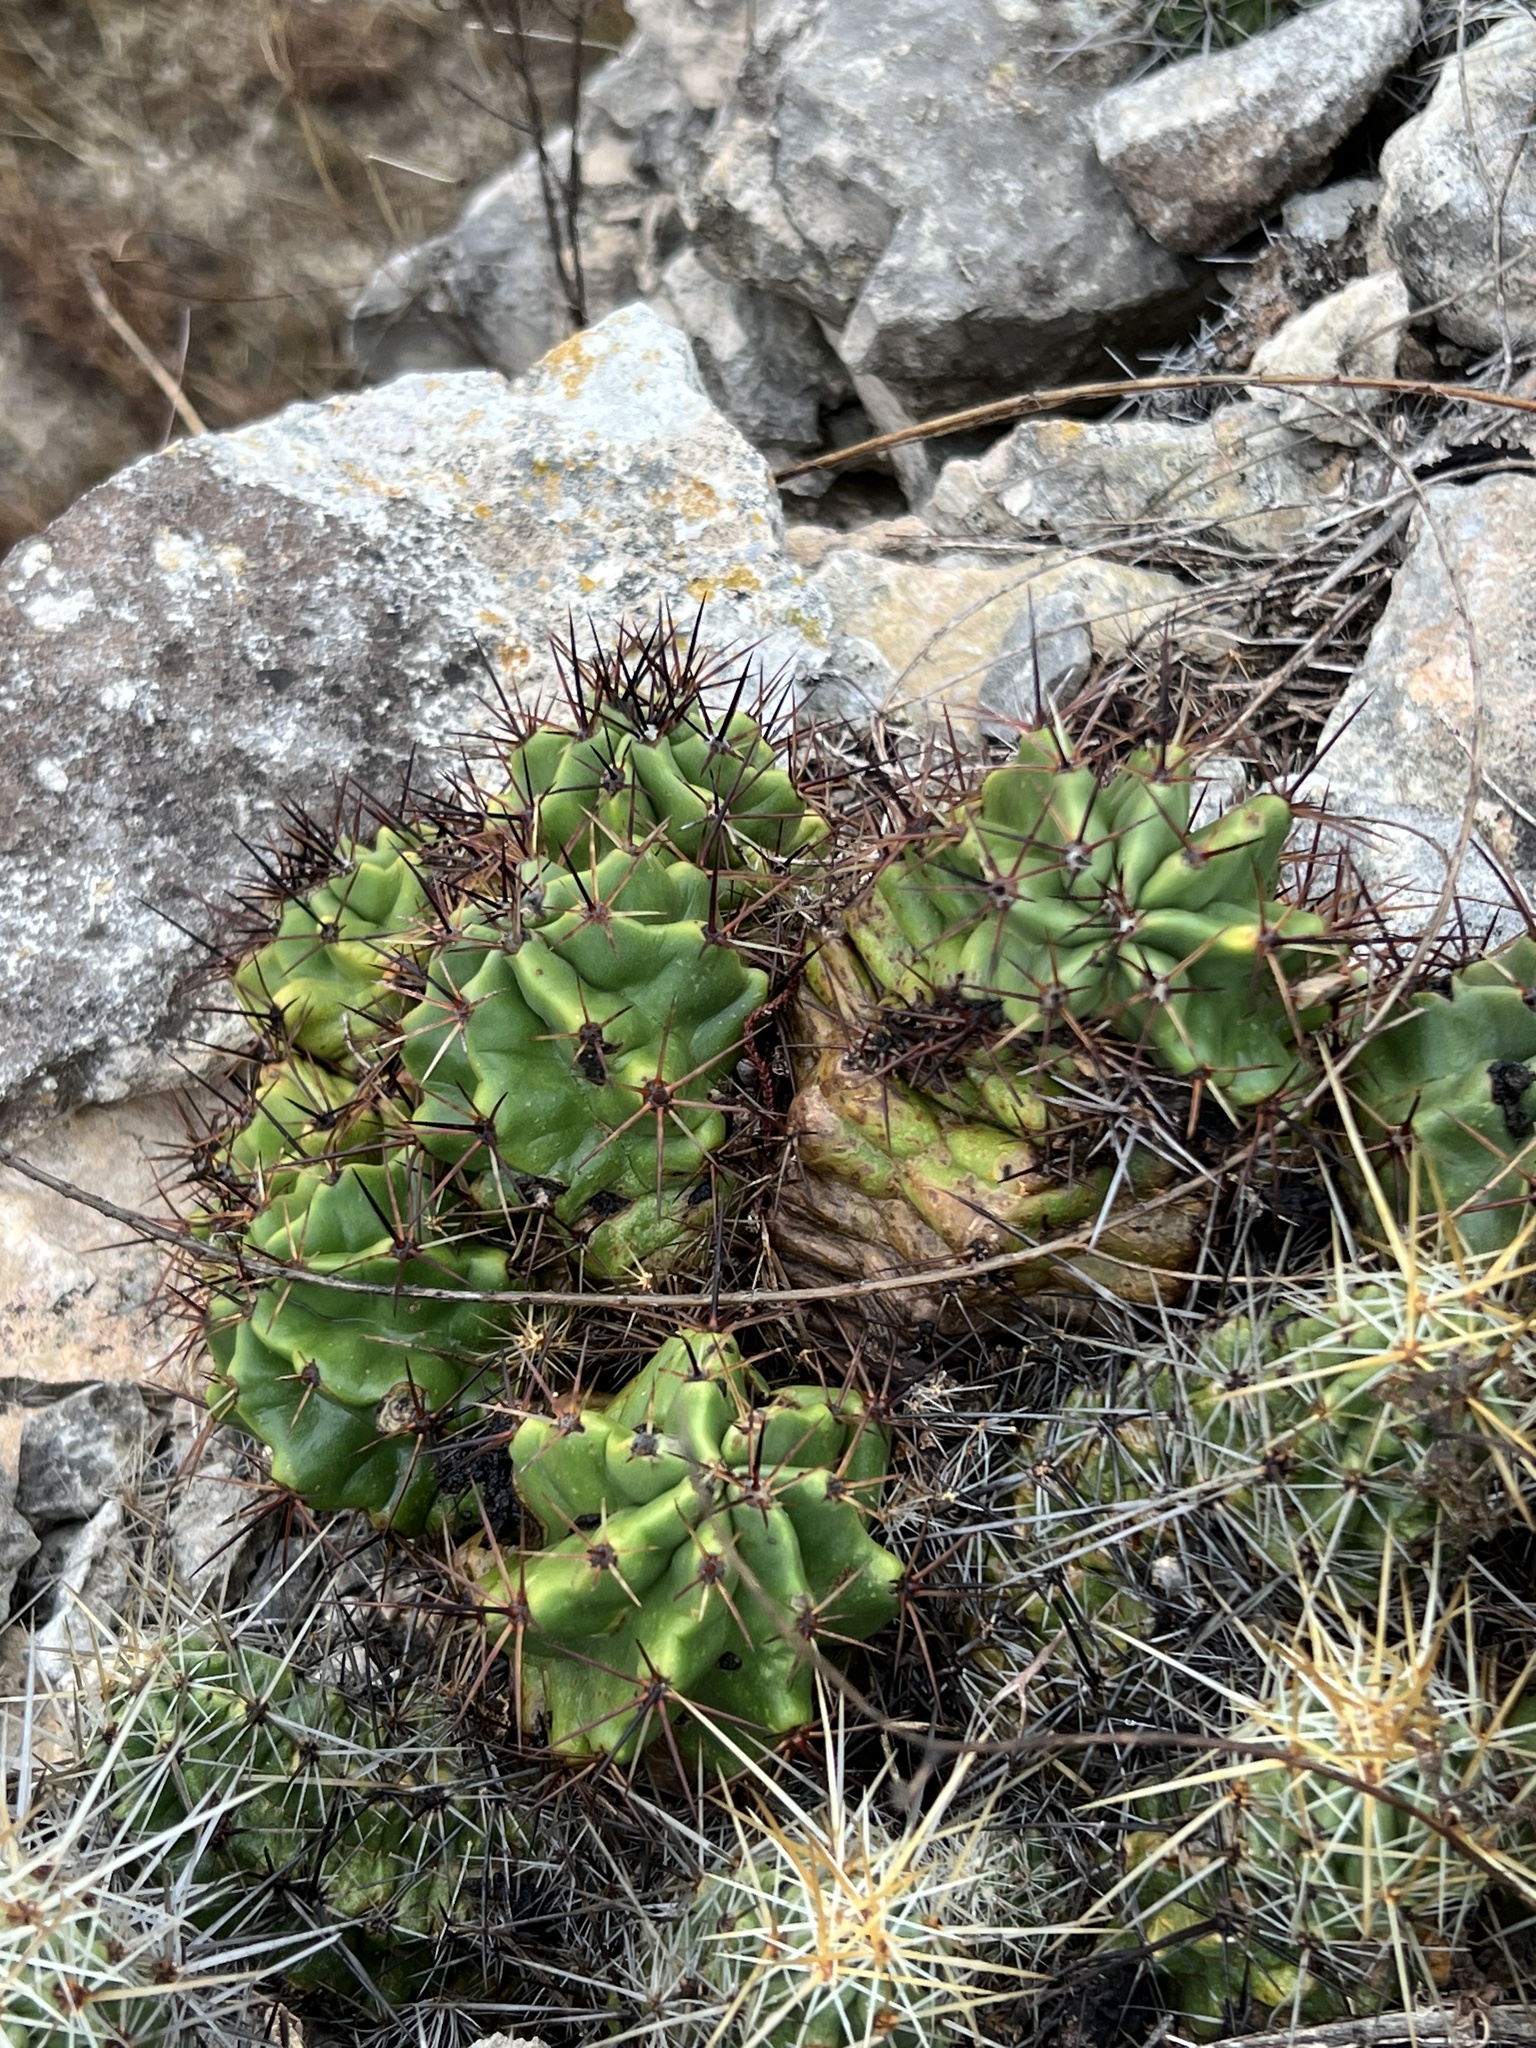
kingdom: Plantae
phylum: Tracheophyta
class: Magnoliopsida
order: Caryophyllales
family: Cactaceae
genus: Echinocereus
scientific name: Echinocereus coccineus
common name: Scarlet hedgehog cactus
